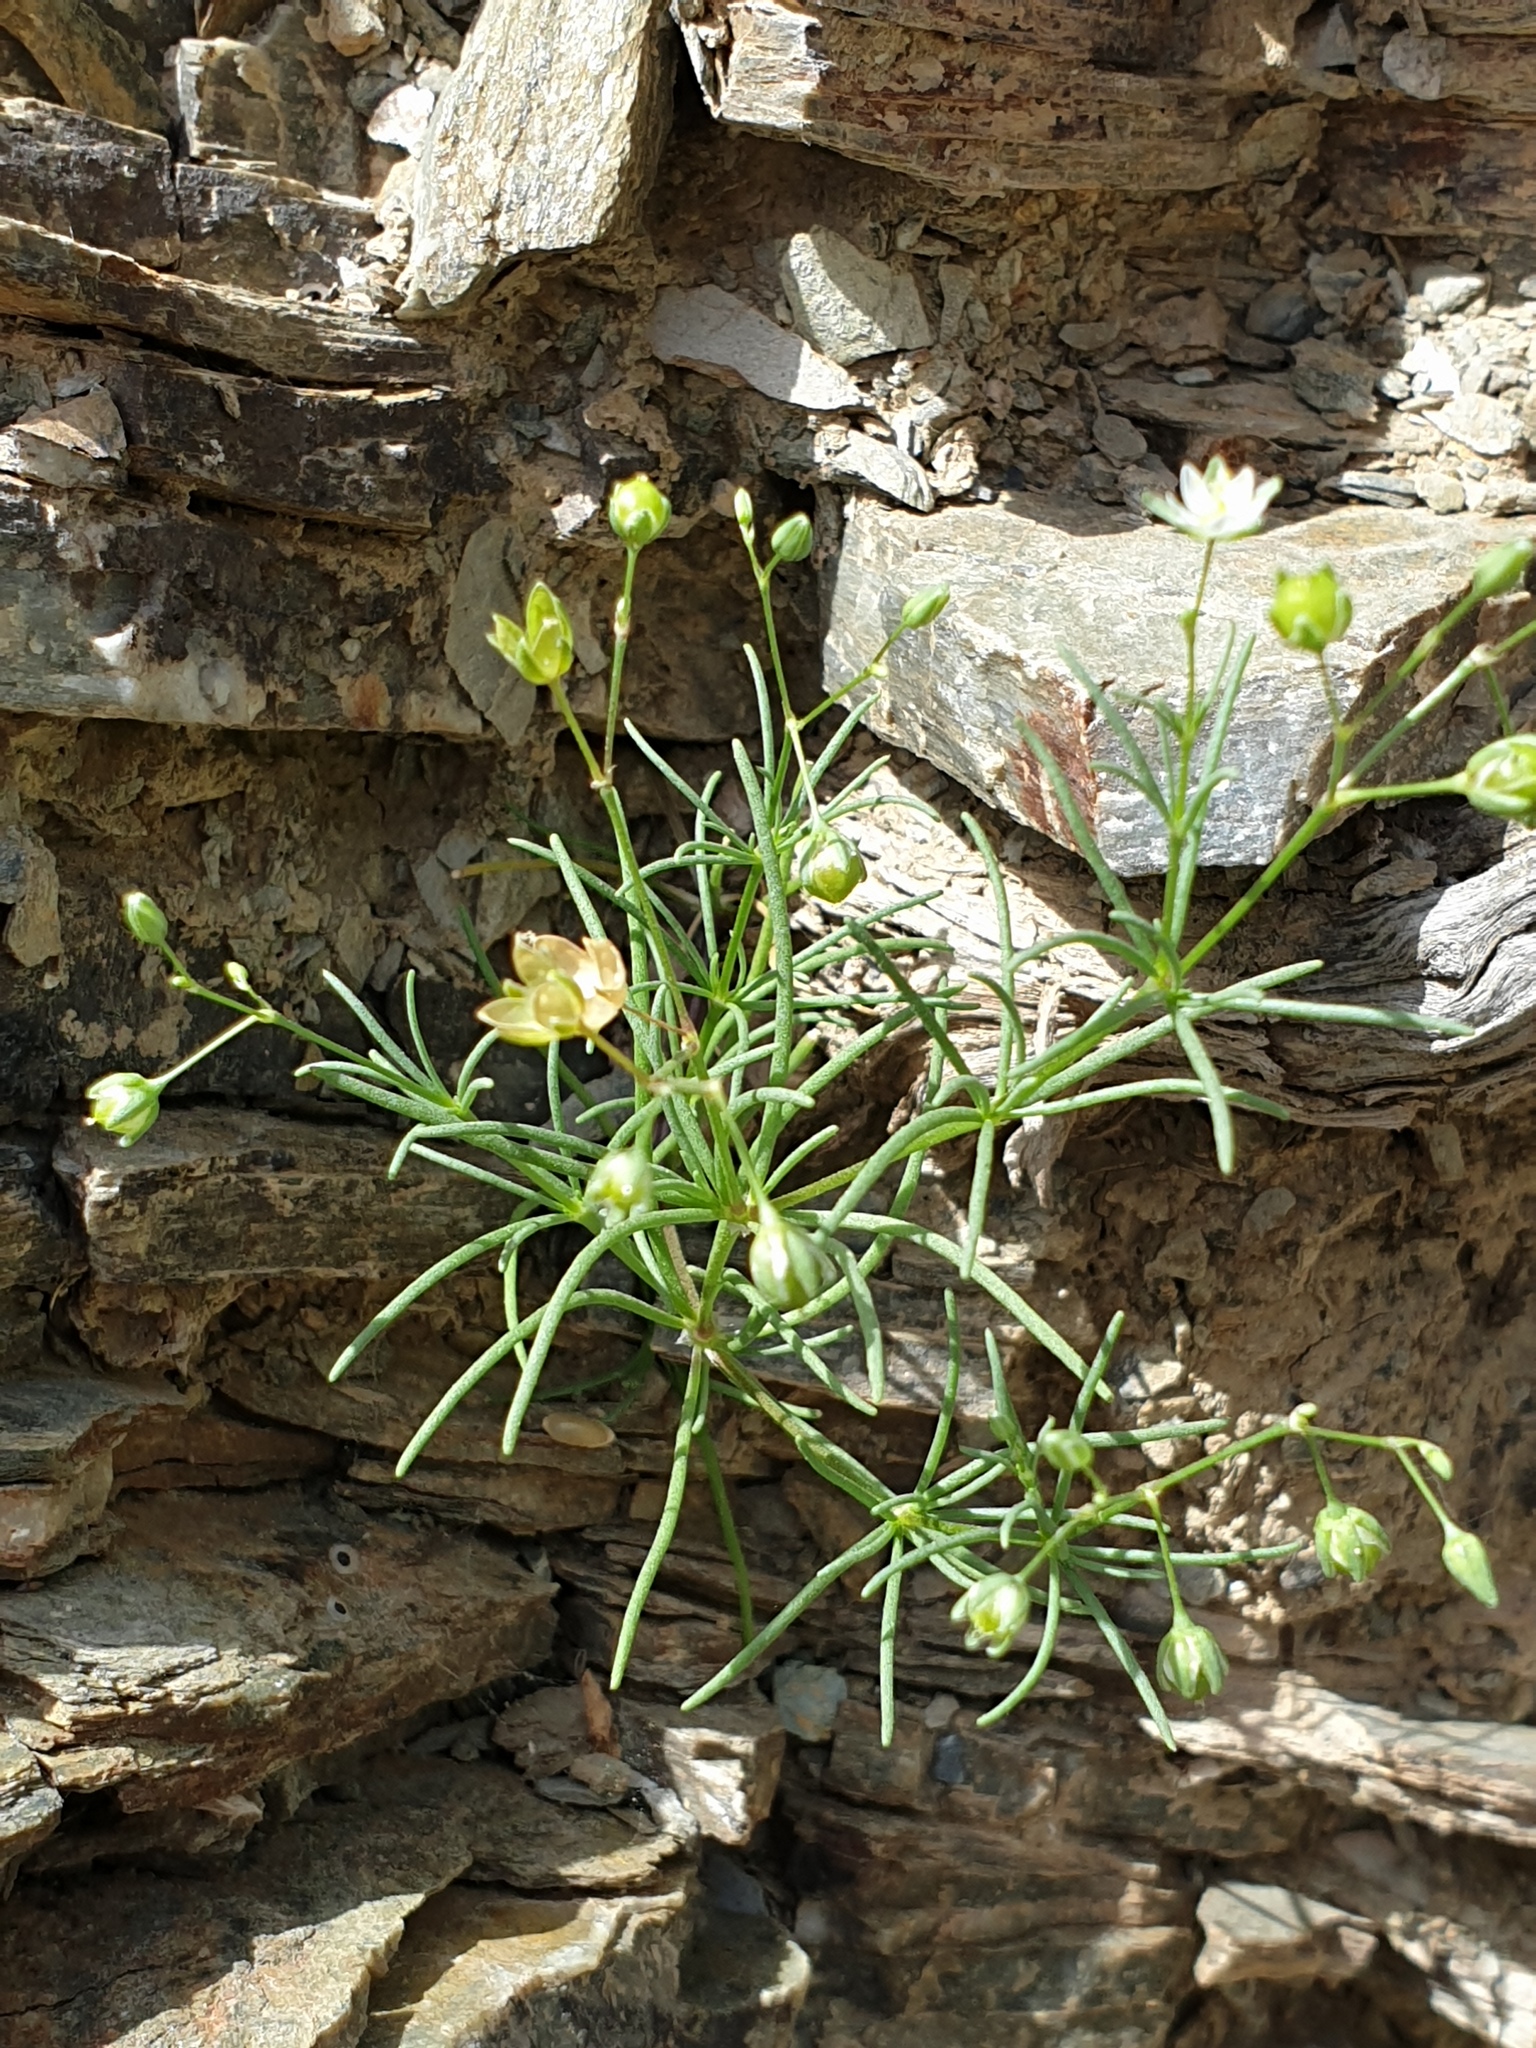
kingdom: Plantae
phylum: Tracheophyta
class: Magnoliopsida
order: Caryophyllales
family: Caryophyllaceae
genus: Spergularia
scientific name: Spergularia flaccida
